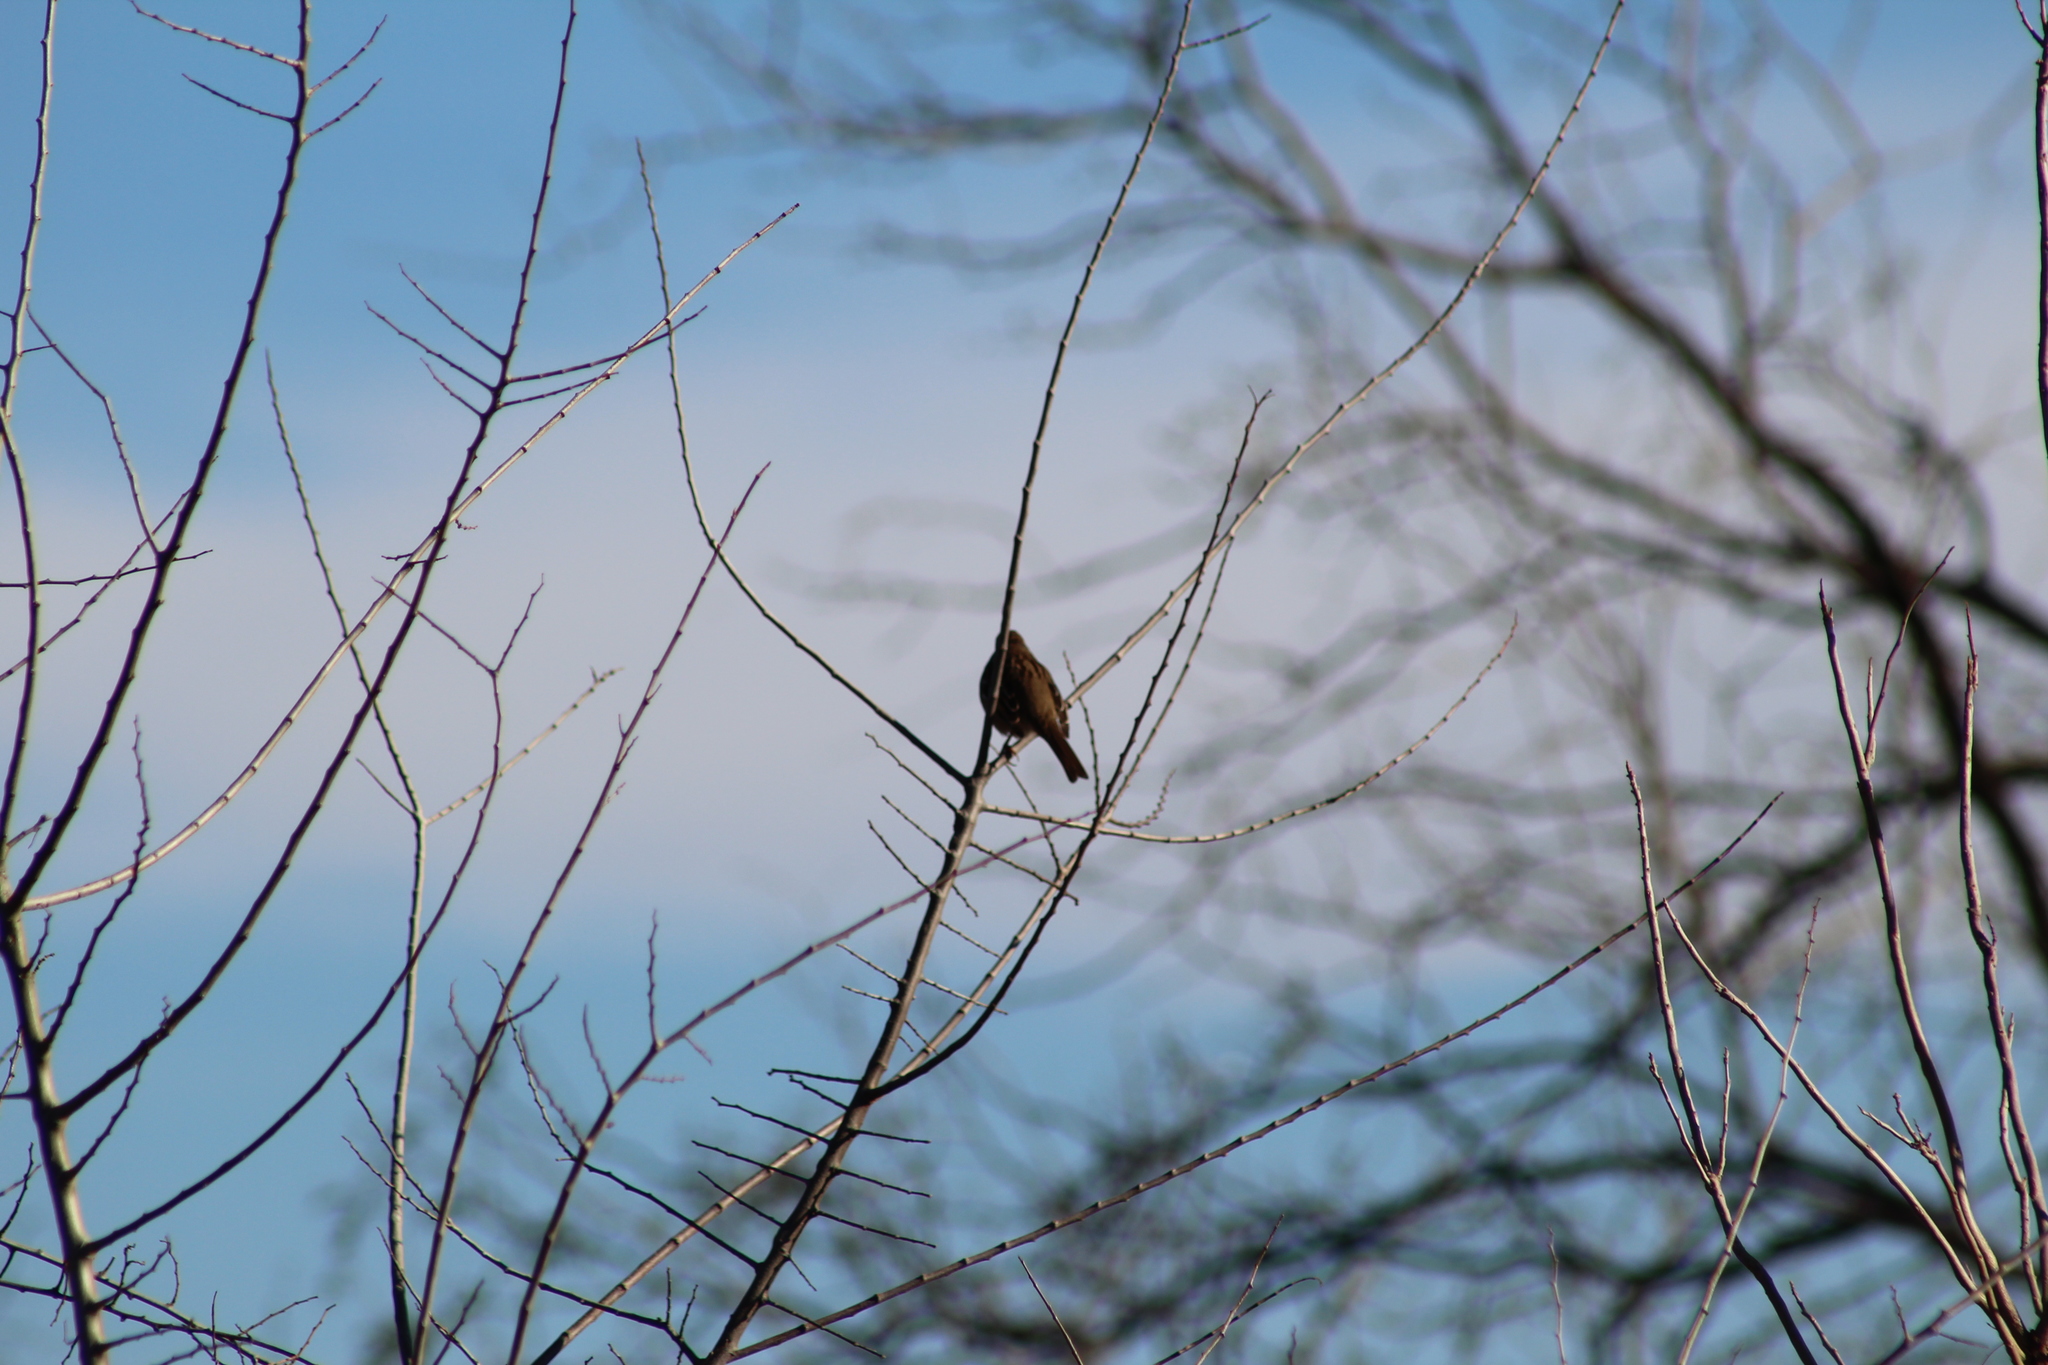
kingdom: Animalia
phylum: Chordata
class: Aves
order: Passeriformes
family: Passerellidae
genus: Zonotrichia
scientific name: Zonotrichia leucophrys
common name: White-crowned sparrow
